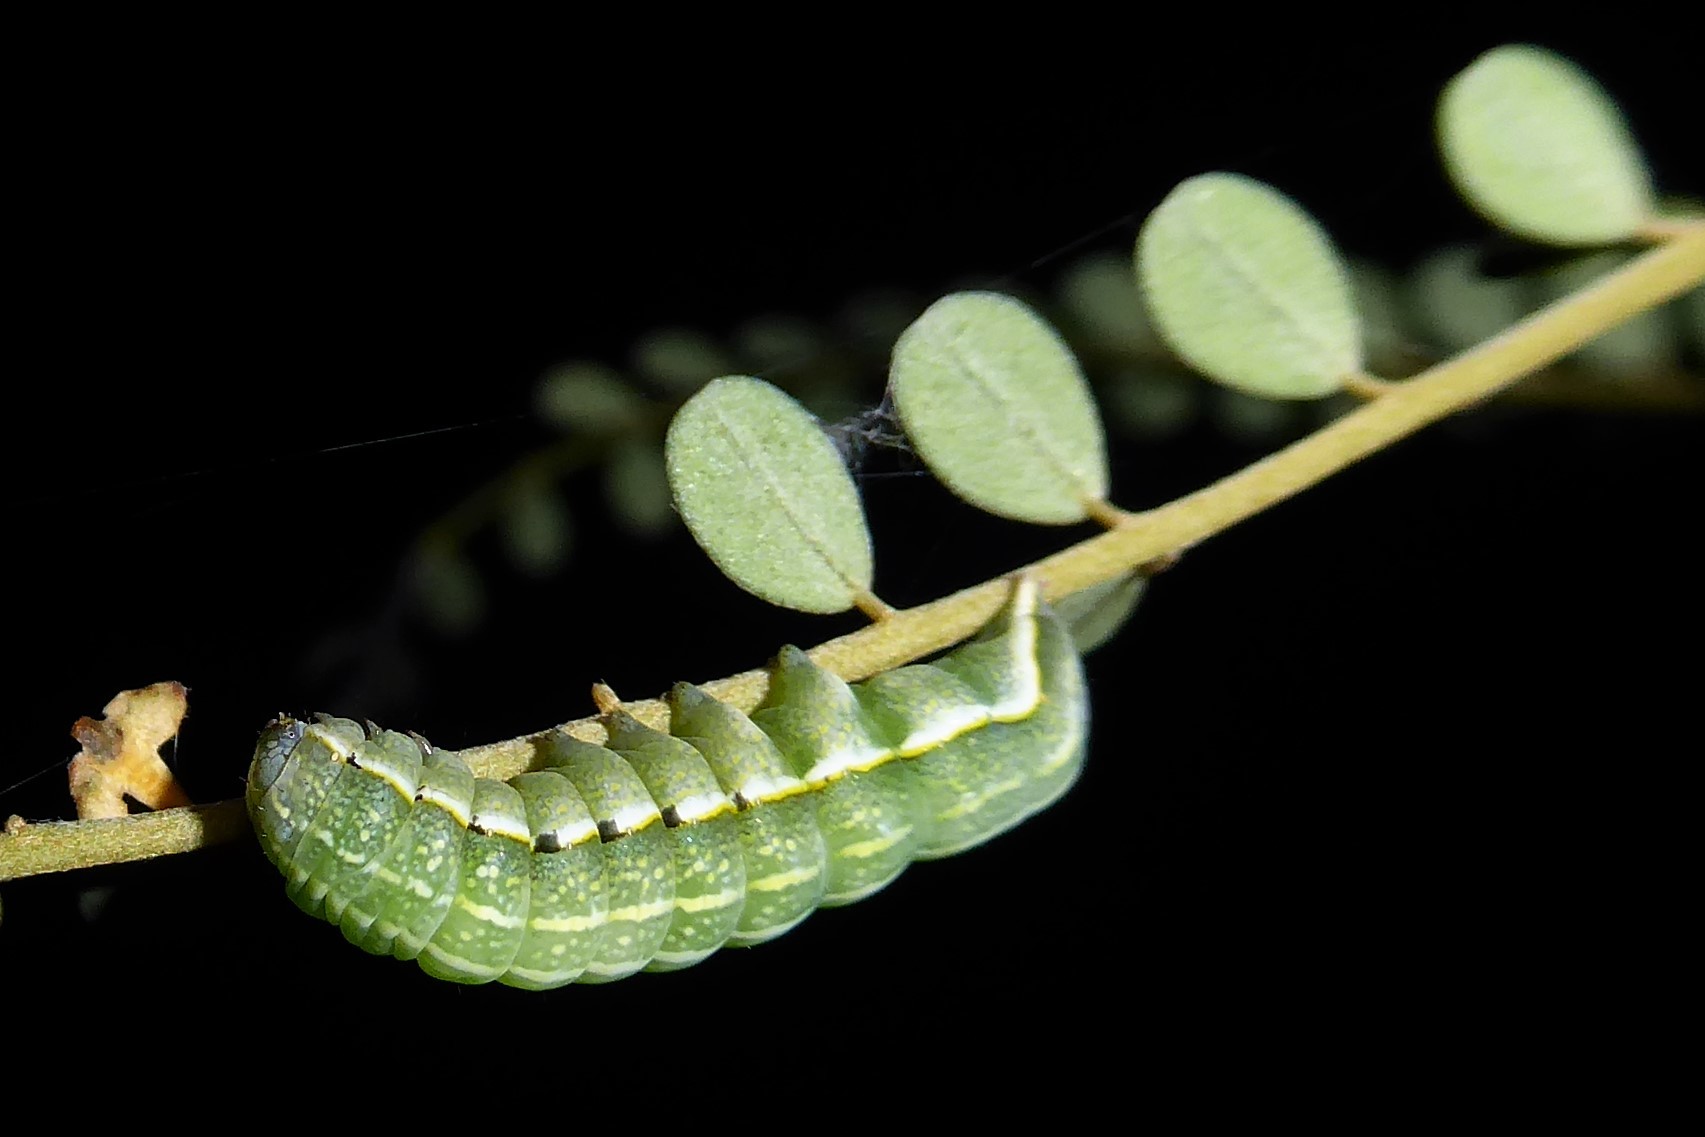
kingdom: Animalia
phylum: Arthropoda
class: Insecta
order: Lepidoptera
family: Noctuidae
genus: Meterana
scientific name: Meterana decorata
